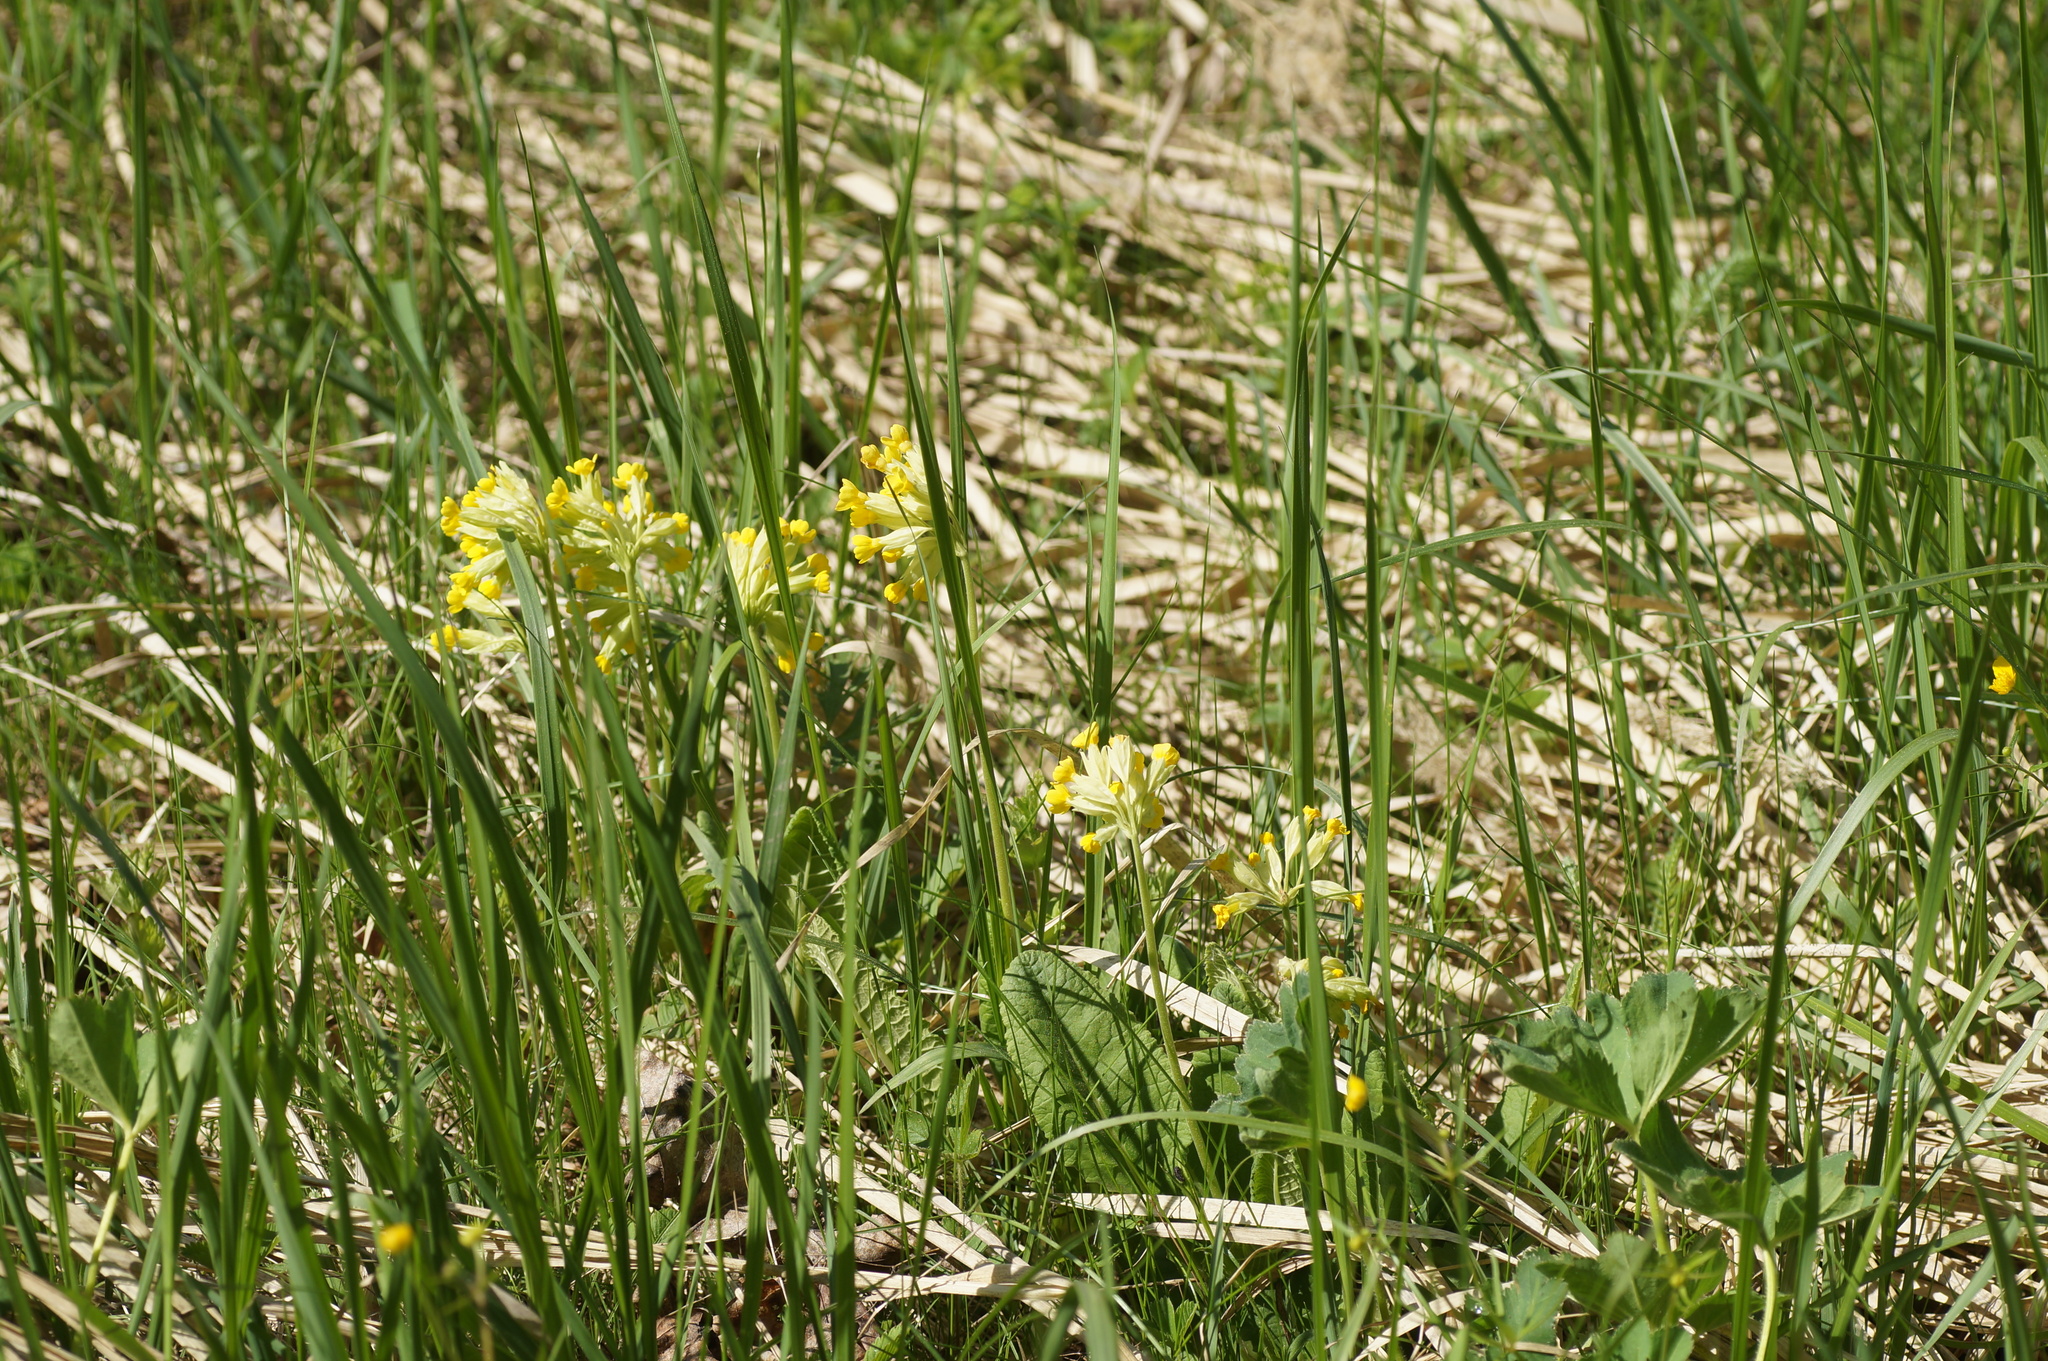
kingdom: Plantae
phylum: Tracheophyta
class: Magnoliopsida
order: Ericales
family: Primulaceae
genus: Primula
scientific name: Primula veris
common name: Cowslip
